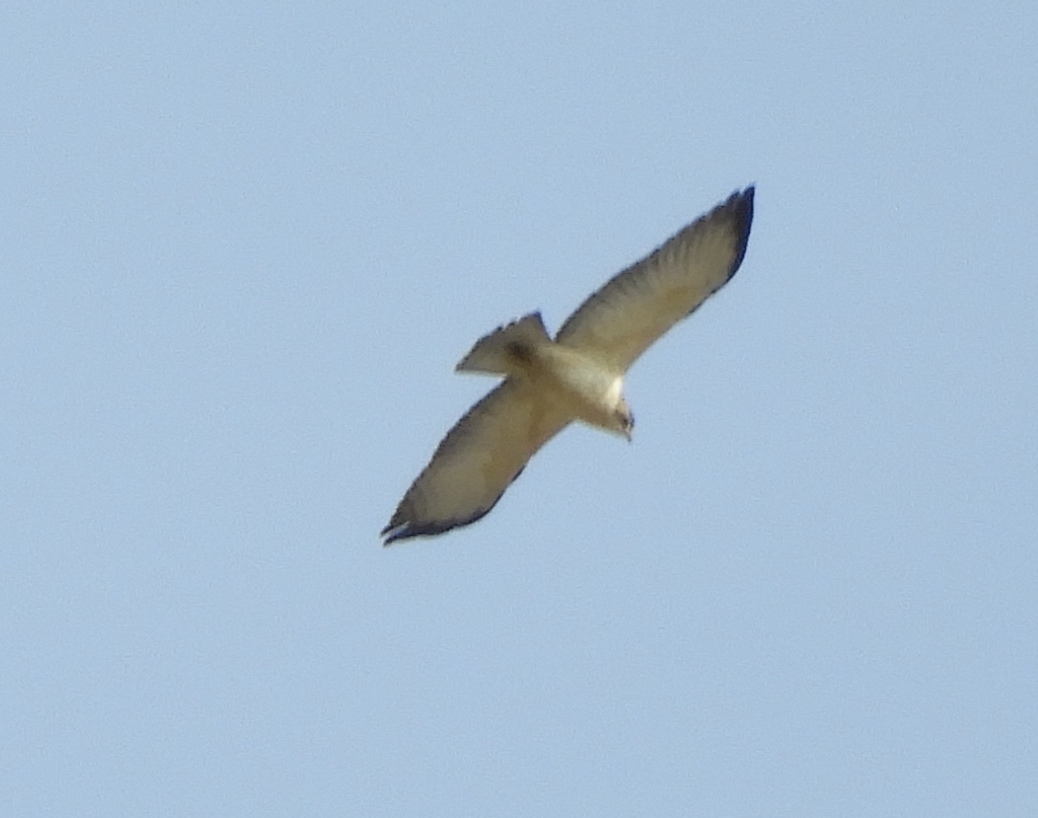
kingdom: Animalia
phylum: Chordata
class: Aves
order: Accipitriformes
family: Accipitridae
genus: Buteo
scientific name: Buteo brachyurus
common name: Short-tailed hawk
